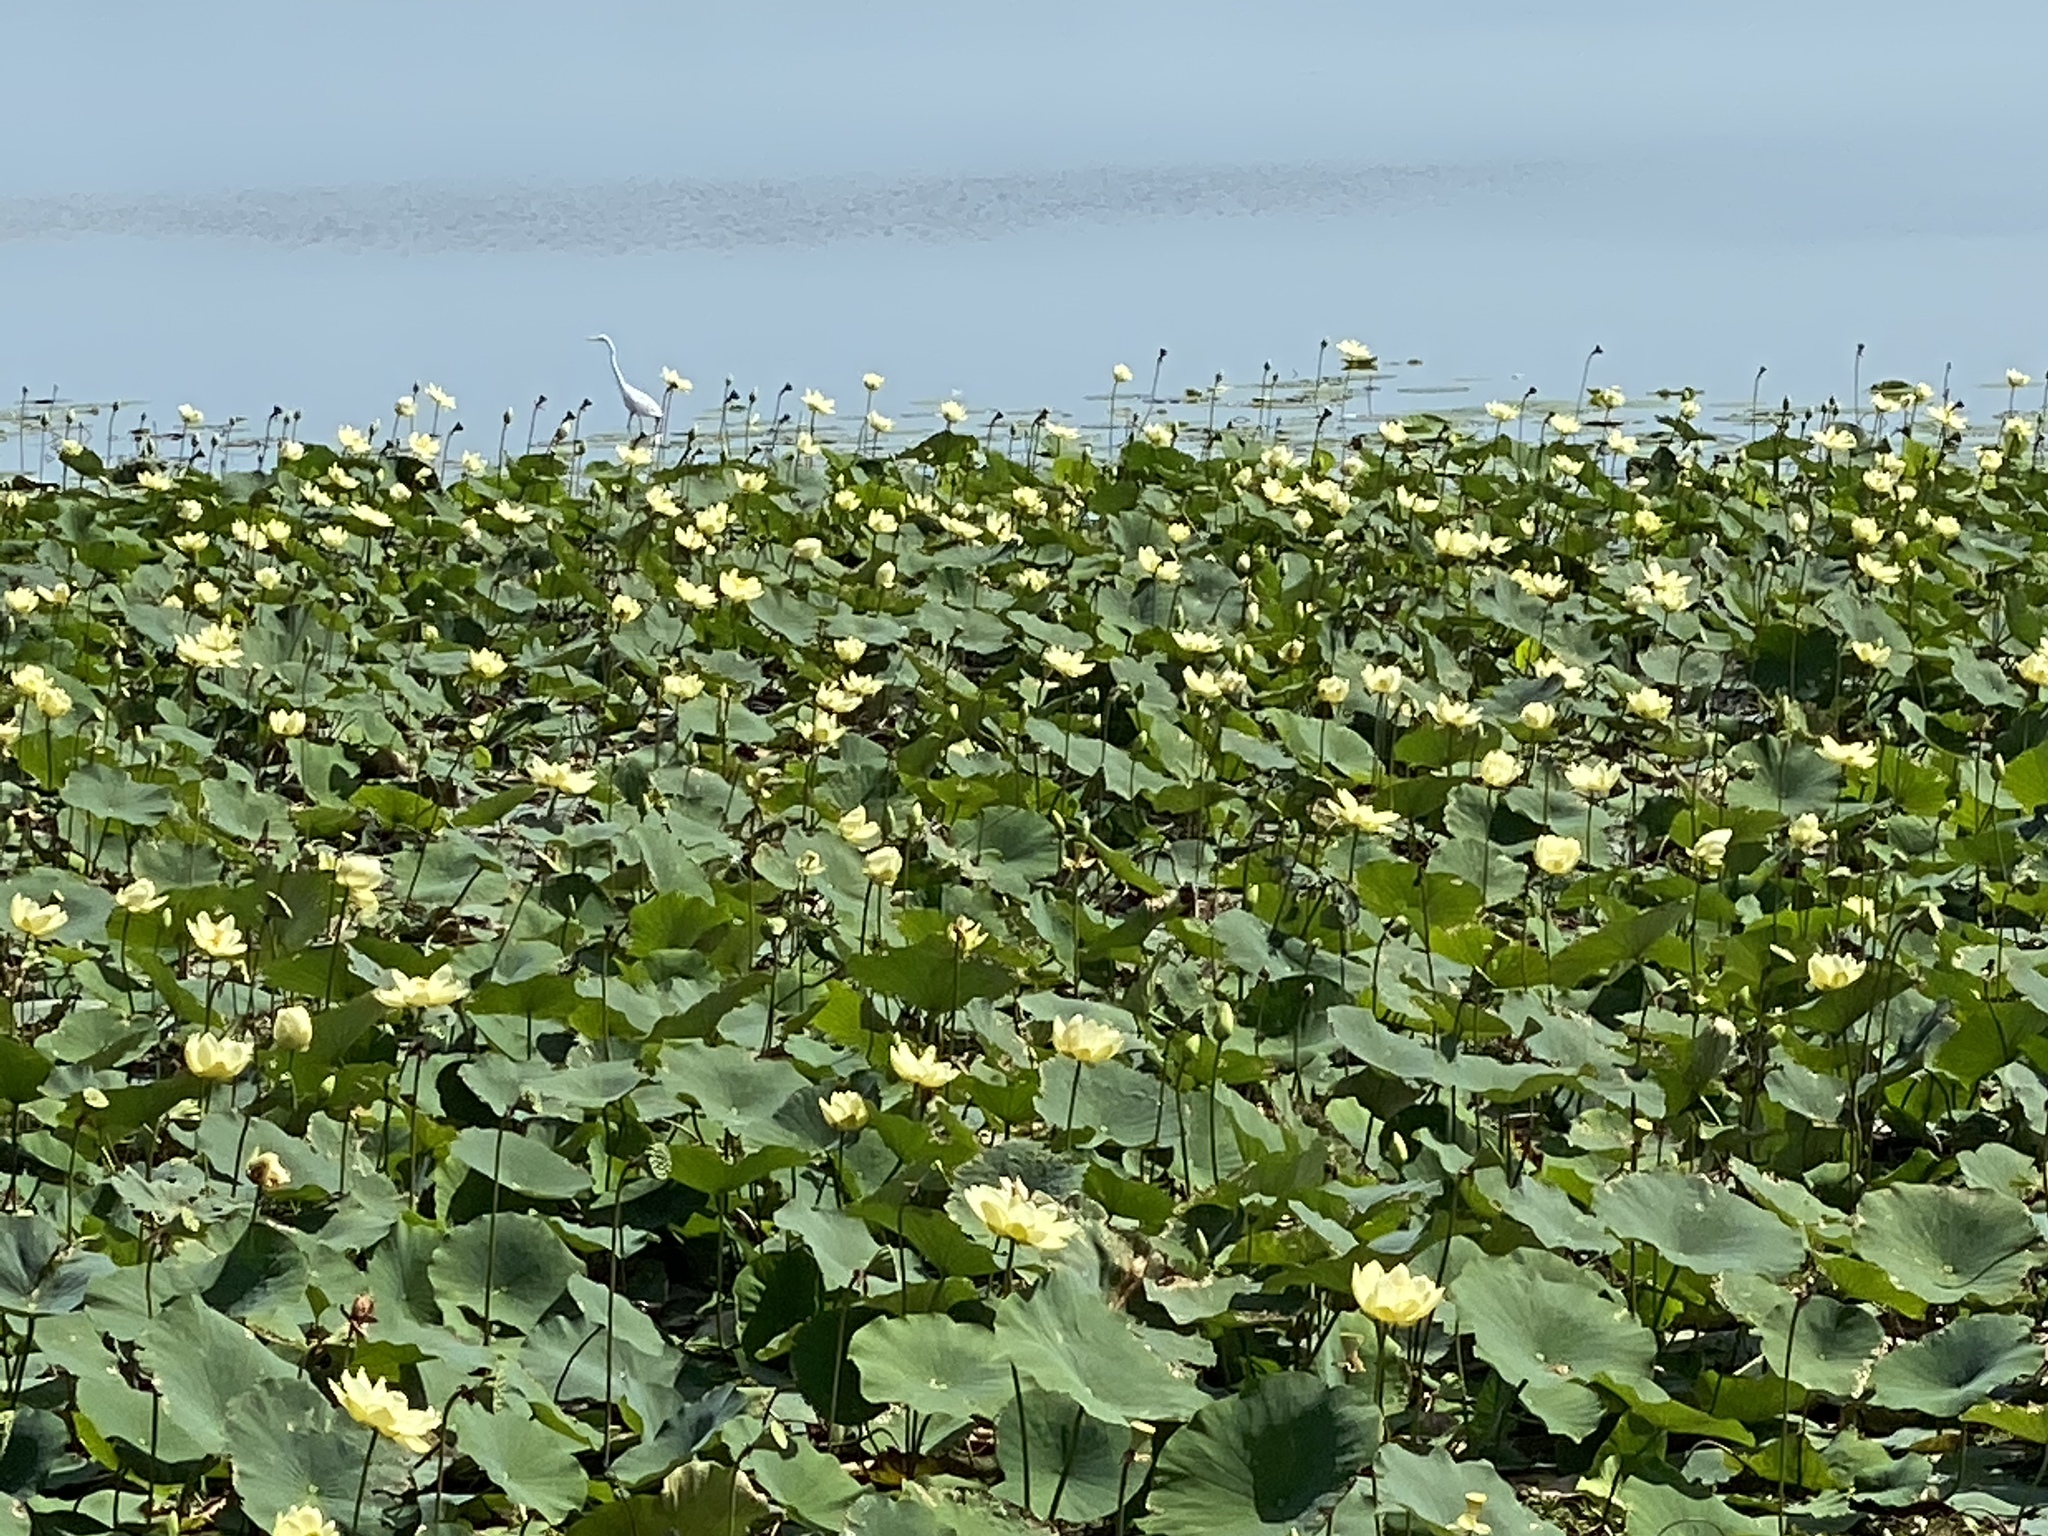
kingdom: Plantae
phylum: Tracheophyta
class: Magnoliopsida
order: Proteales
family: Nelumbonaceae
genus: Nelumbo
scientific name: Nelumbo lutea
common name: American lotus
